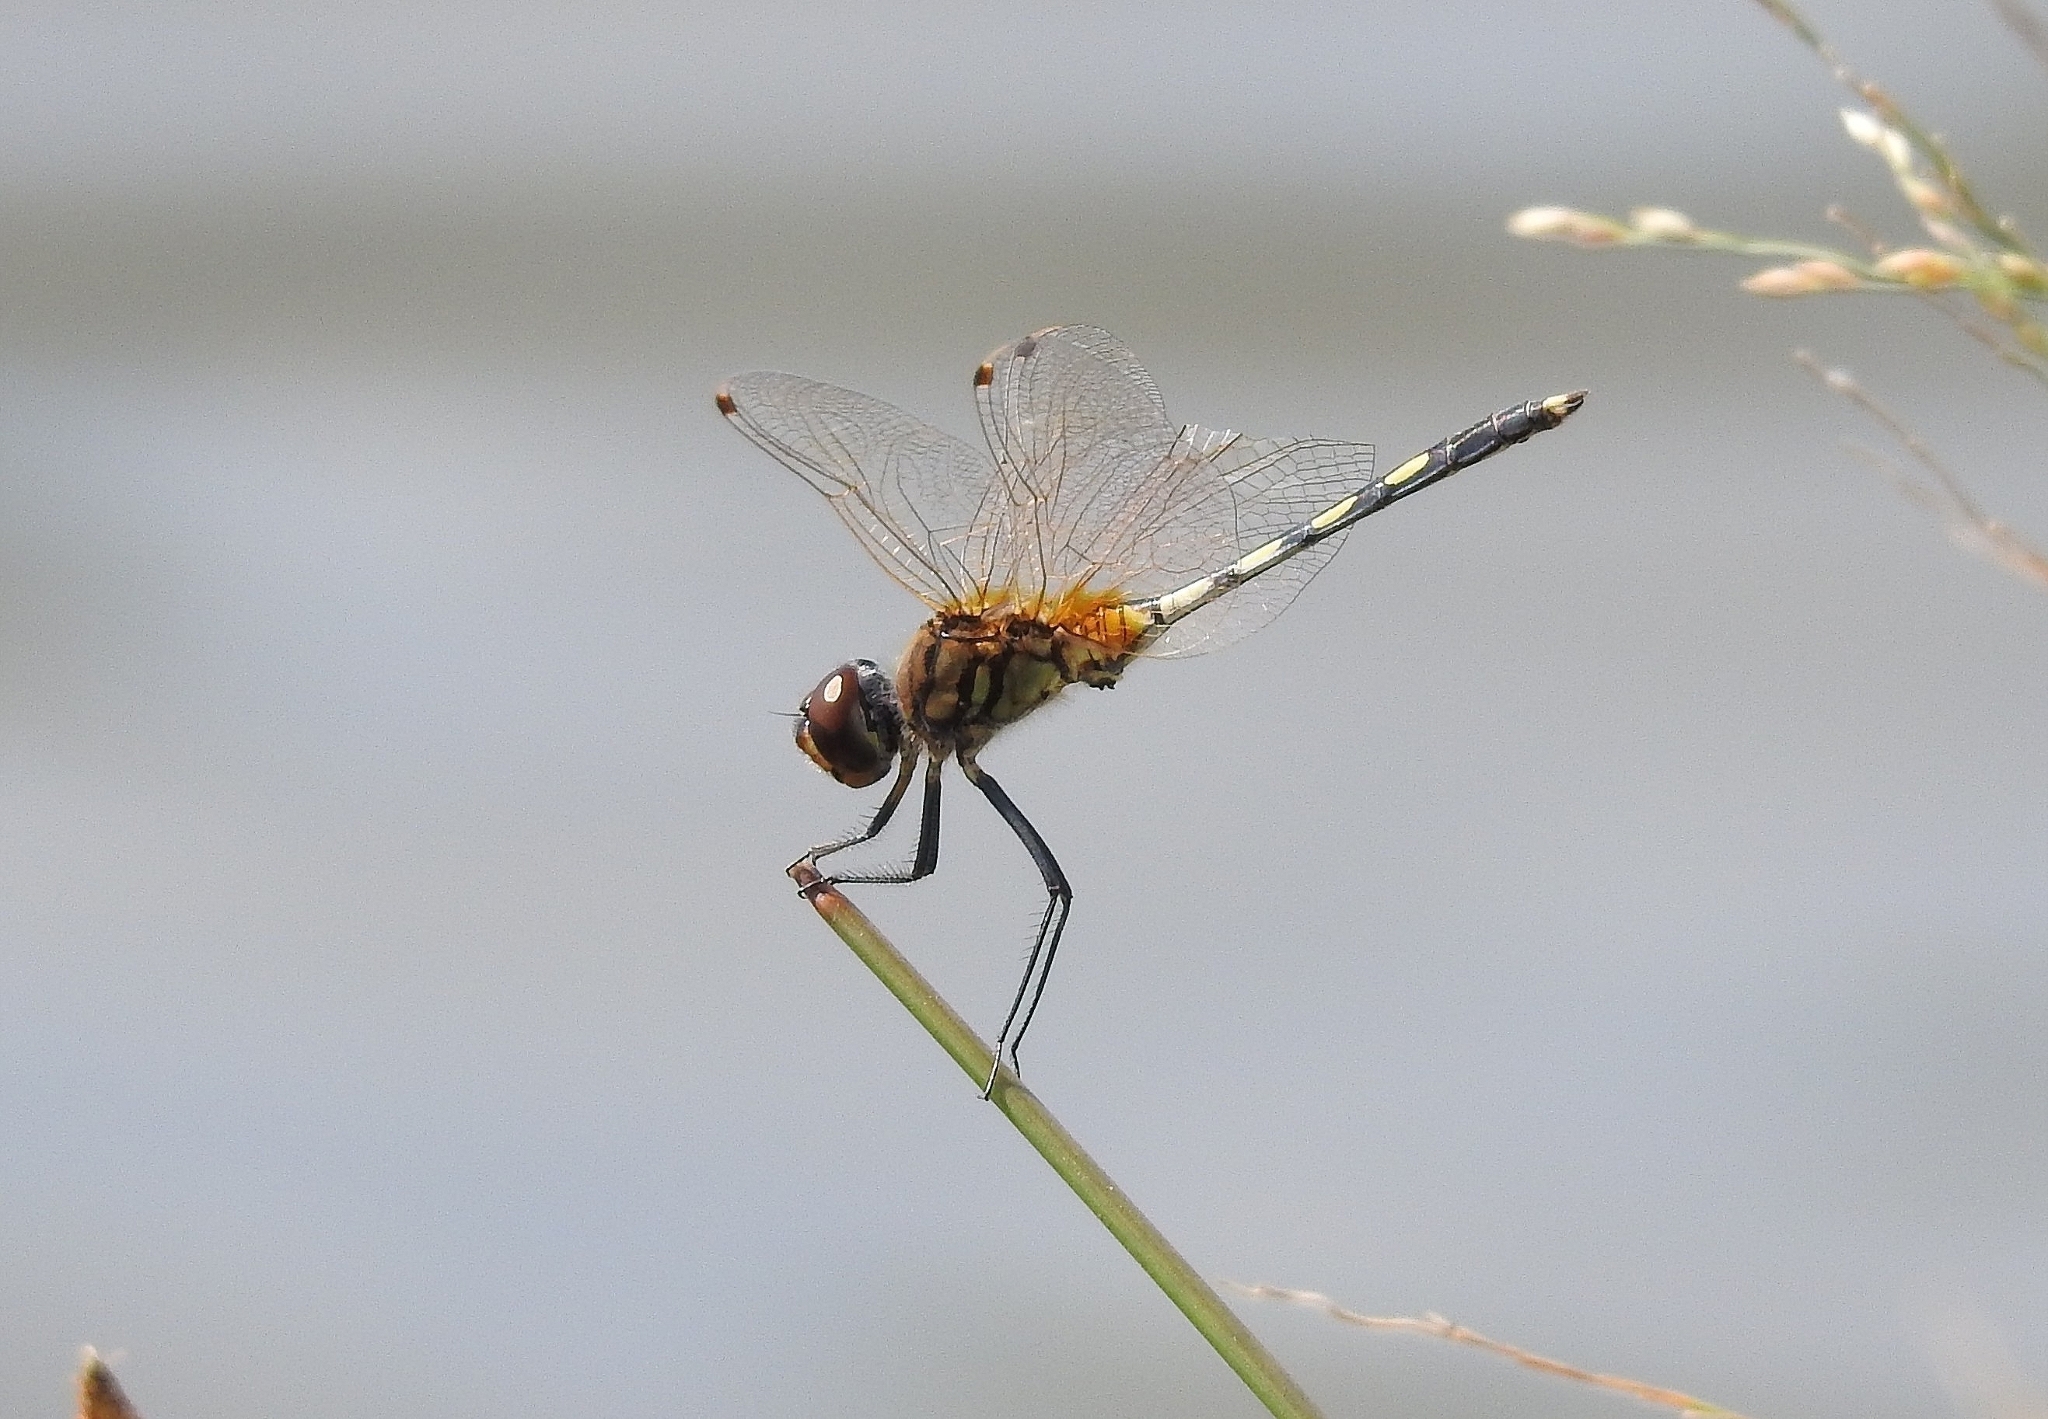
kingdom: Animalia
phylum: Arthropoda
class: Insecta
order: Odonata
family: Libellulidae
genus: Trithemis
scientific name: Trithemis pallidinervis
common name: Dancing dropwing
